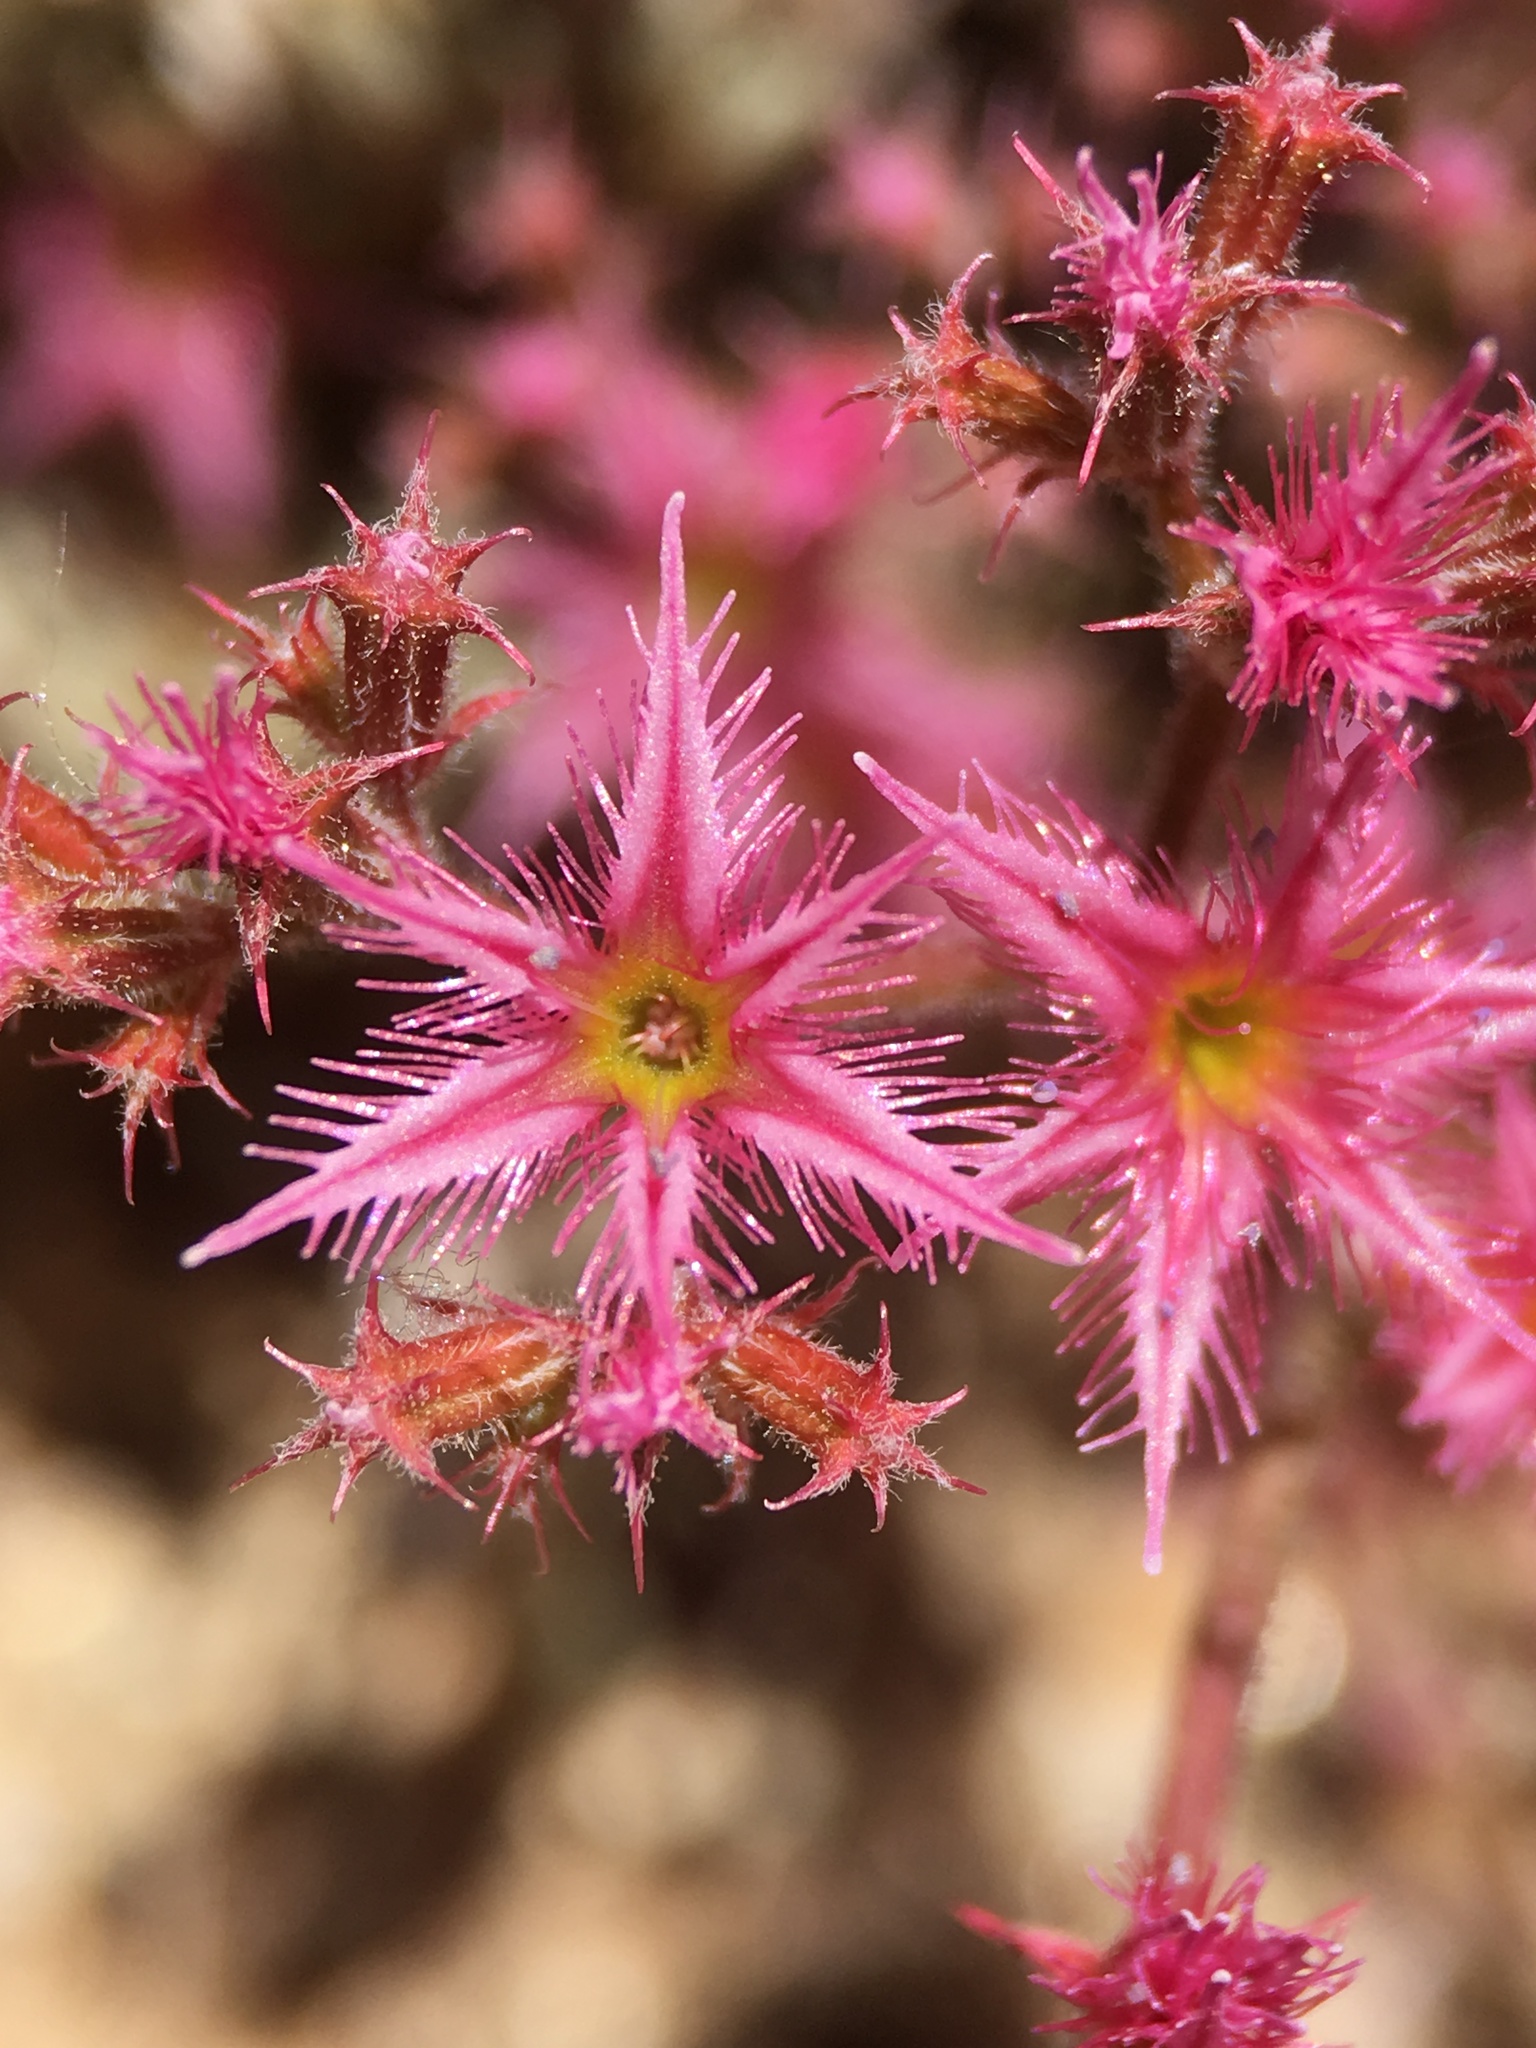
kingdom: Plantae
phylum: Tracheophyta
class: Magnoliopsida
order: Caryophyllales
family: Polygonaceae
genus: Chorizanthe
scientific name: Chorizanthe fimbriata
